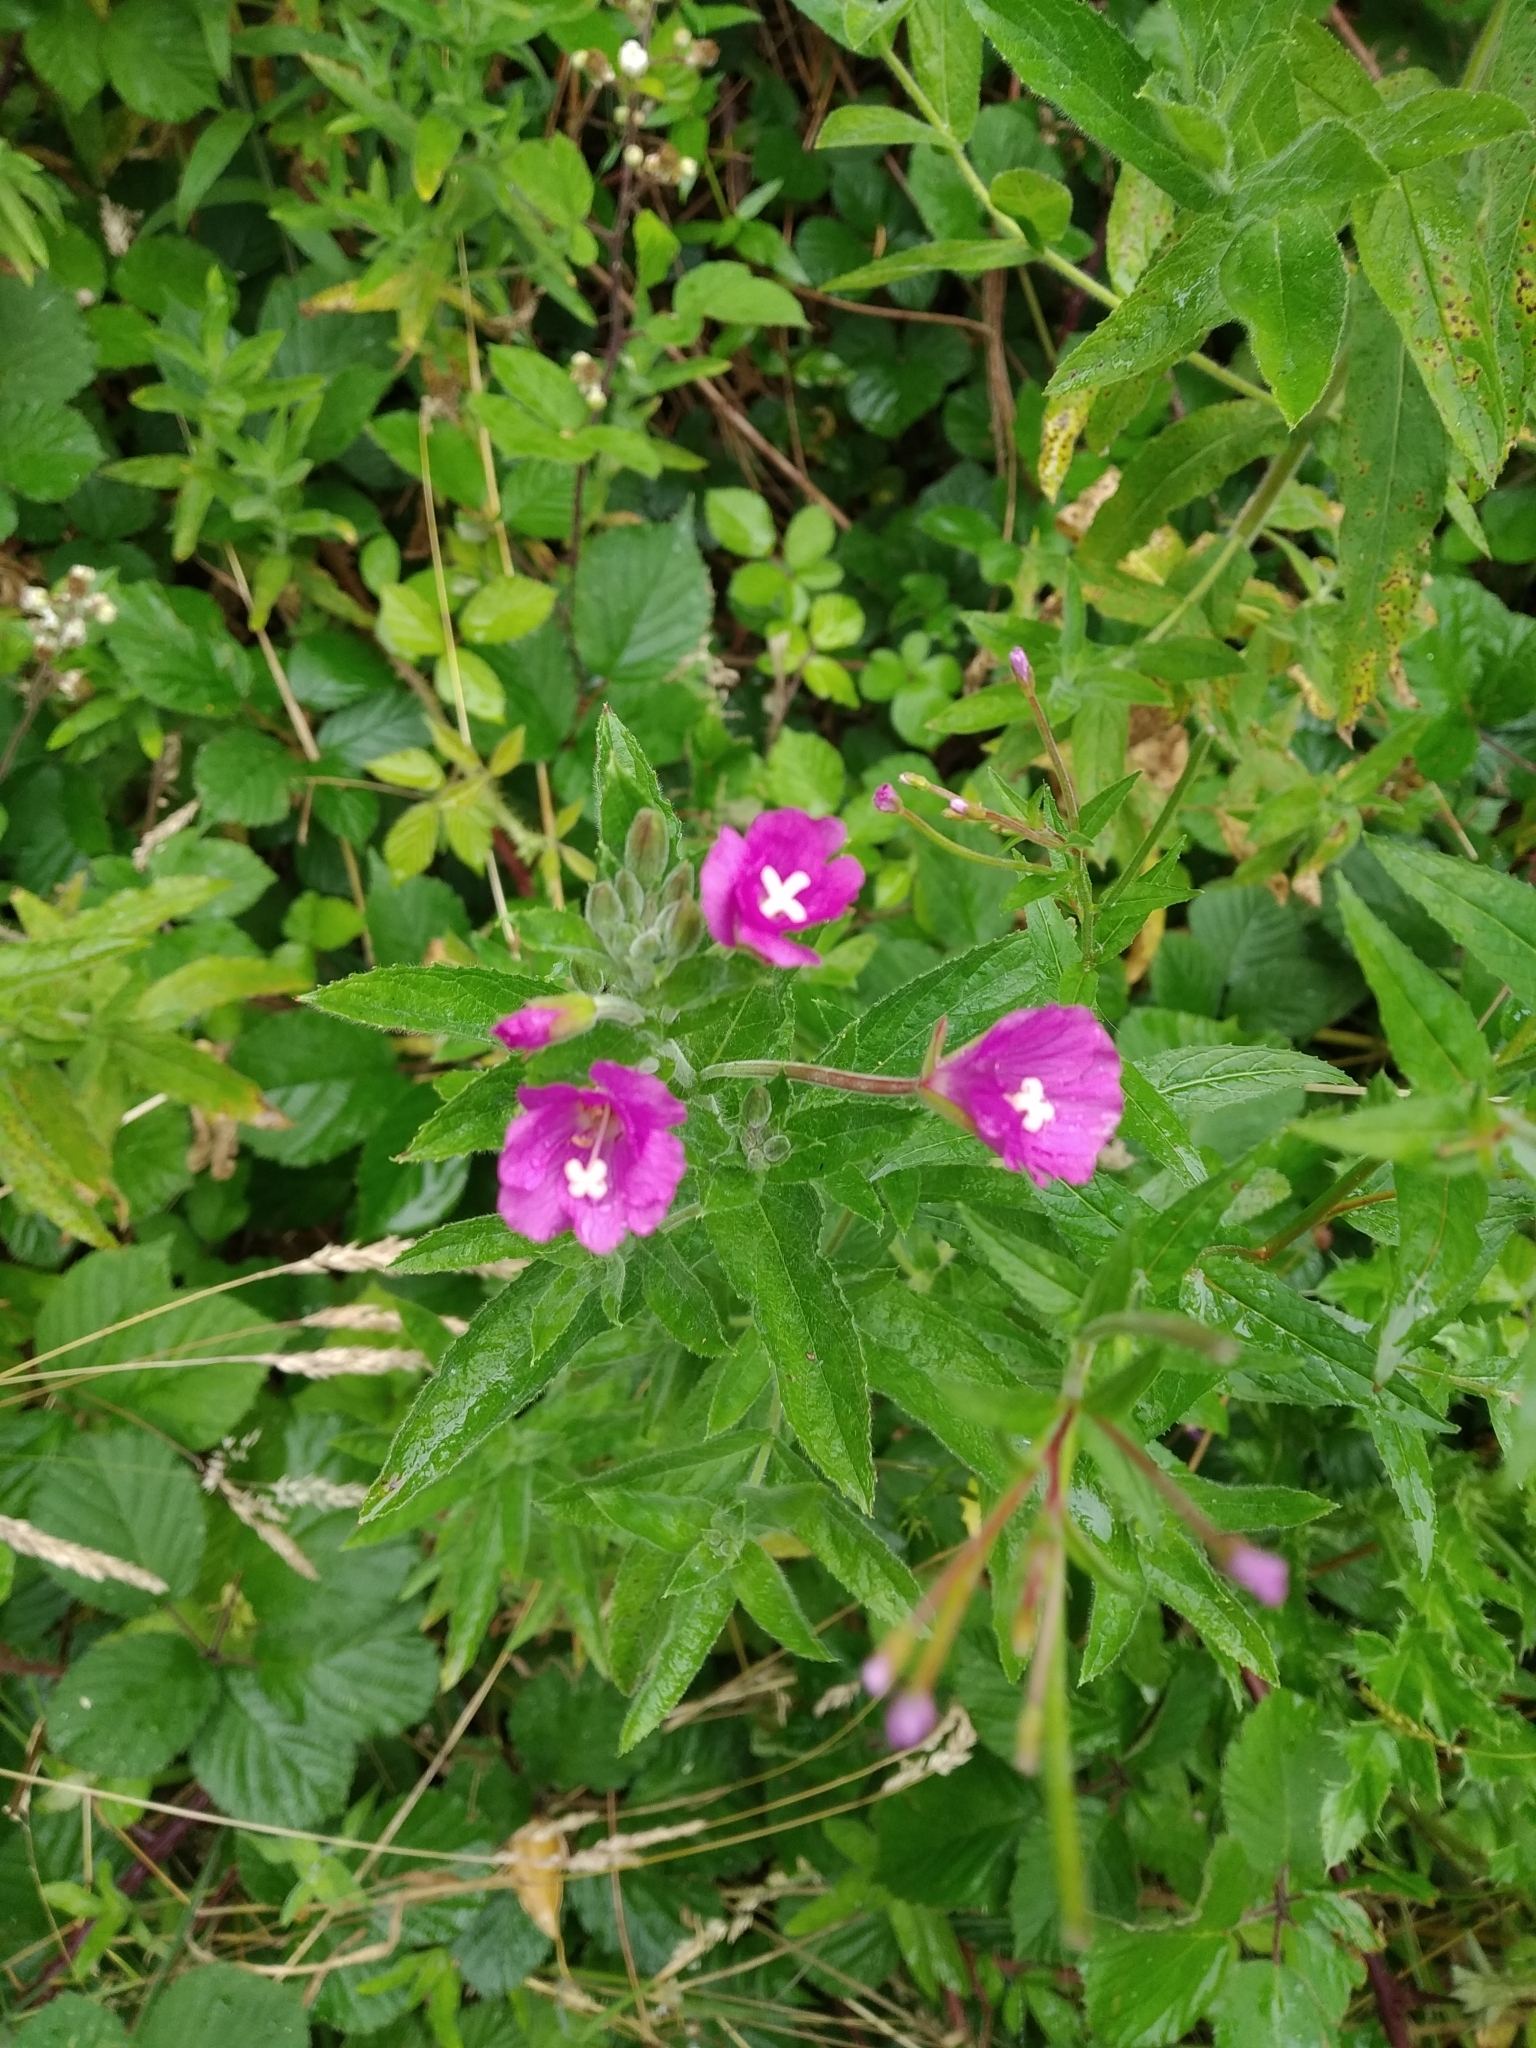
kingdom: Plantae
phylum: Tracheophyta
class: Magnoliopsida
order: Myrtales
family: Onagraceae
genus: Epilobium
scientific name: Epilobium hirsutum
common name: Great willowherb
